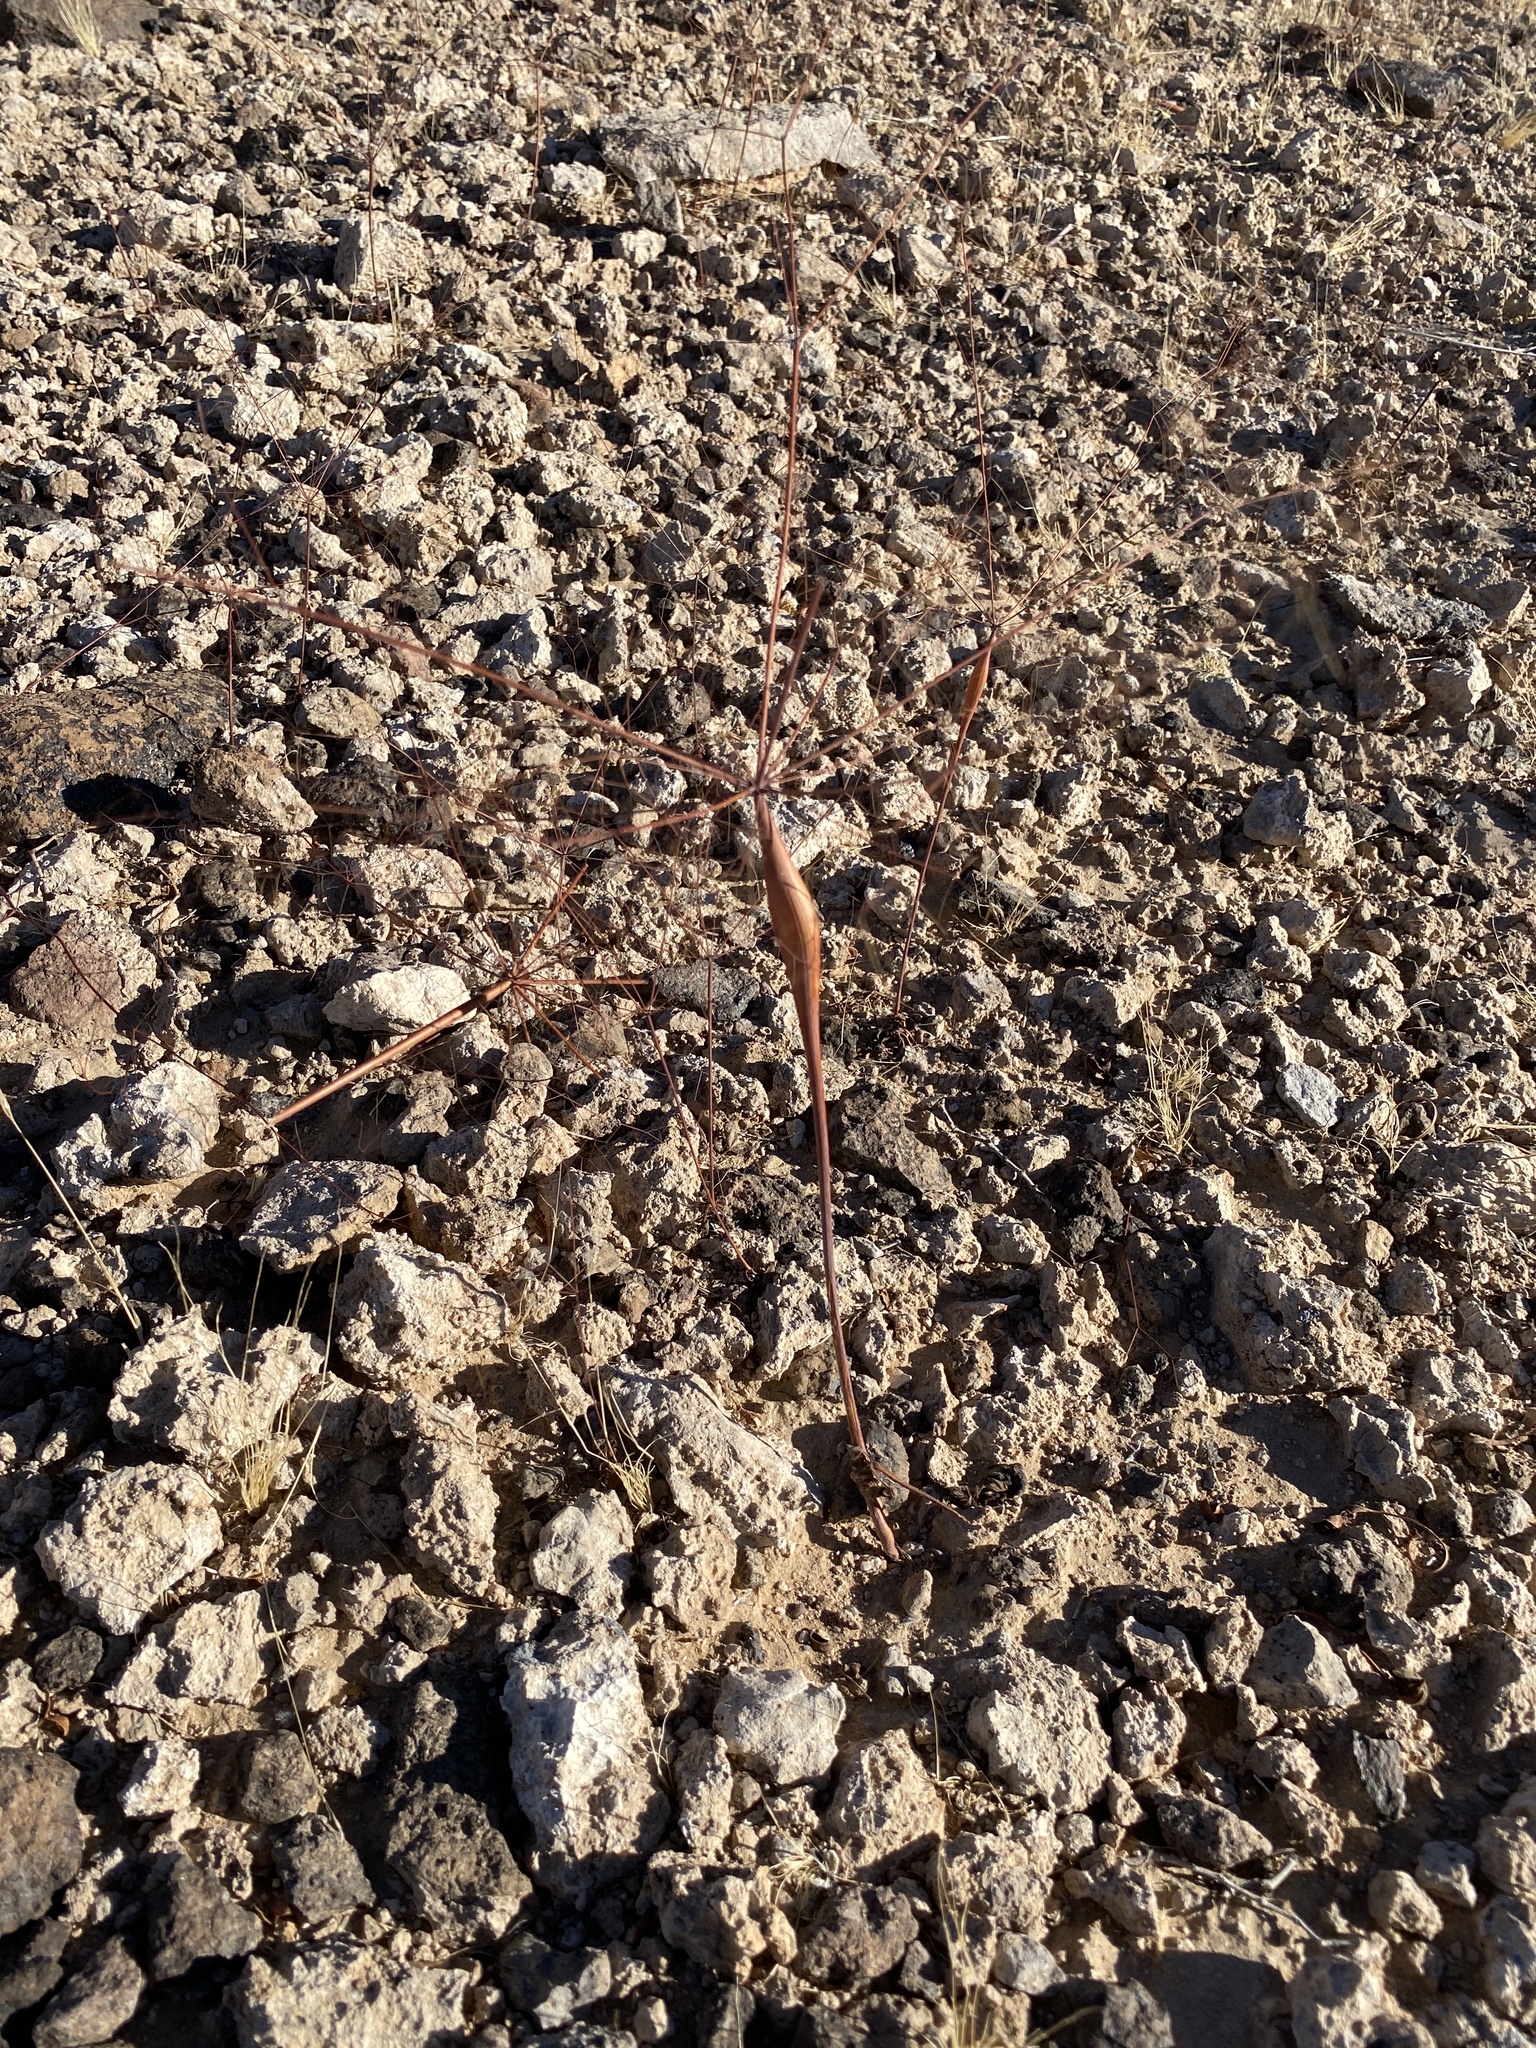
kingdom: Plantae
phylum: Tracheophyta
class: Magnoliopsida
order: Caryophyllales
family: Polygonaceae
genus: Eriogonum
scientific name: Eriogonum inflatum
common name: Desert trumpet
